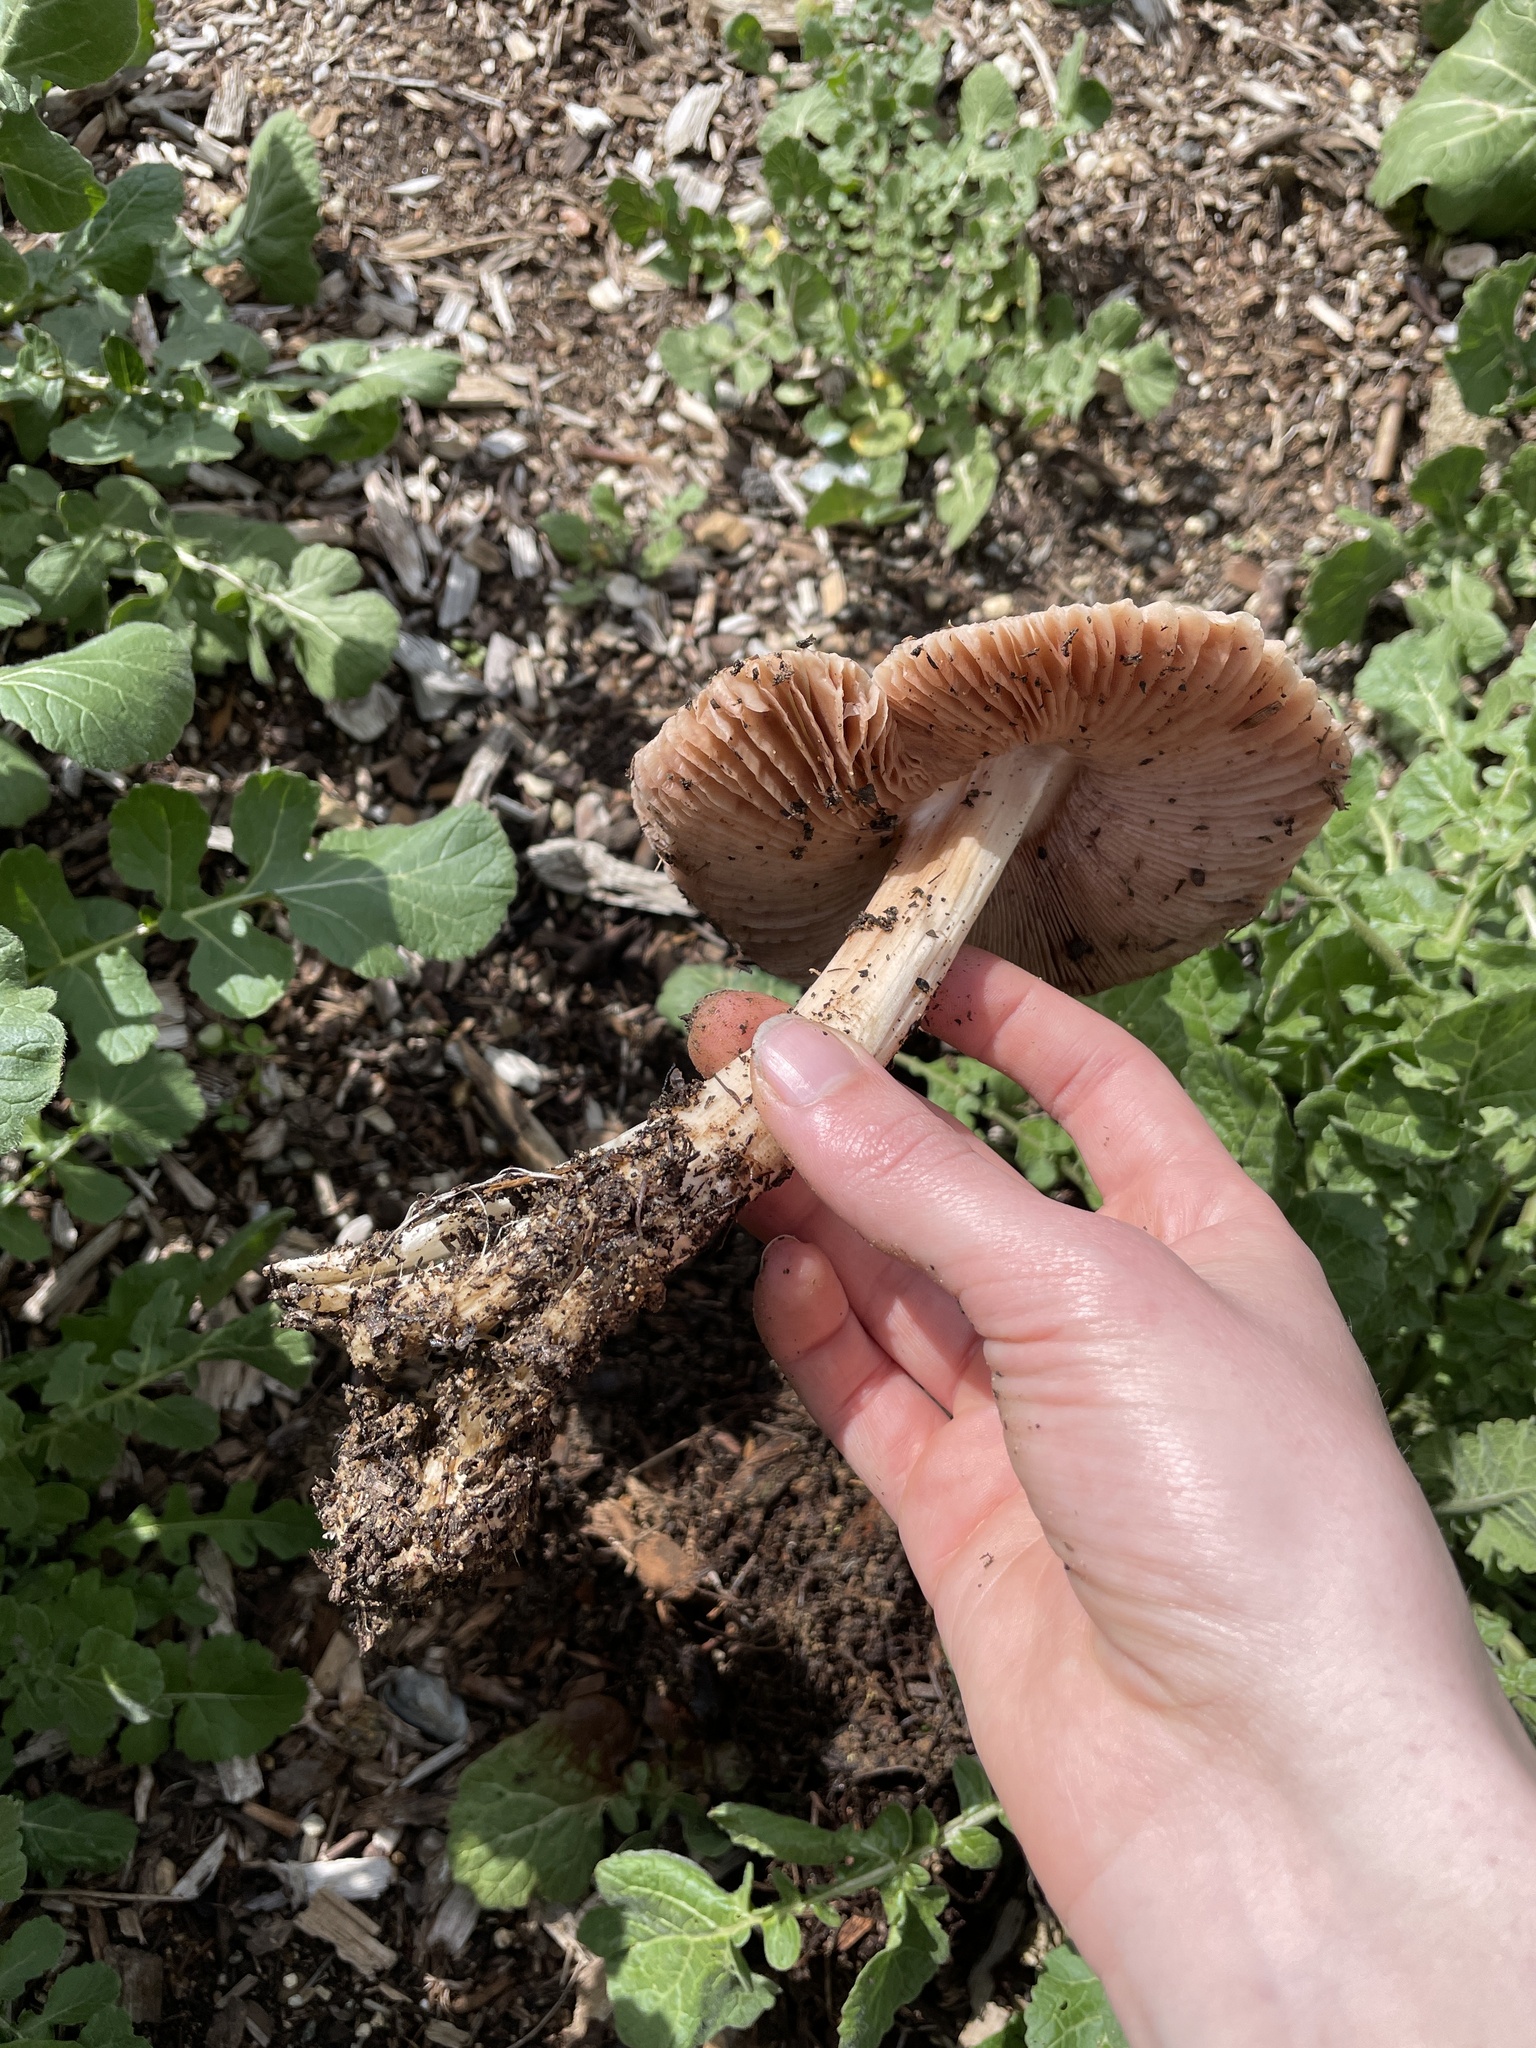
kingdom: Fungi
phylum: Basidiomycota
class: Agaricomycetes
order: Agaricales
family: Pluteaceae
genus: Volvopluteus
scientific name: Volvopluteus gloiocephalus
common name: Stubble rosegill
